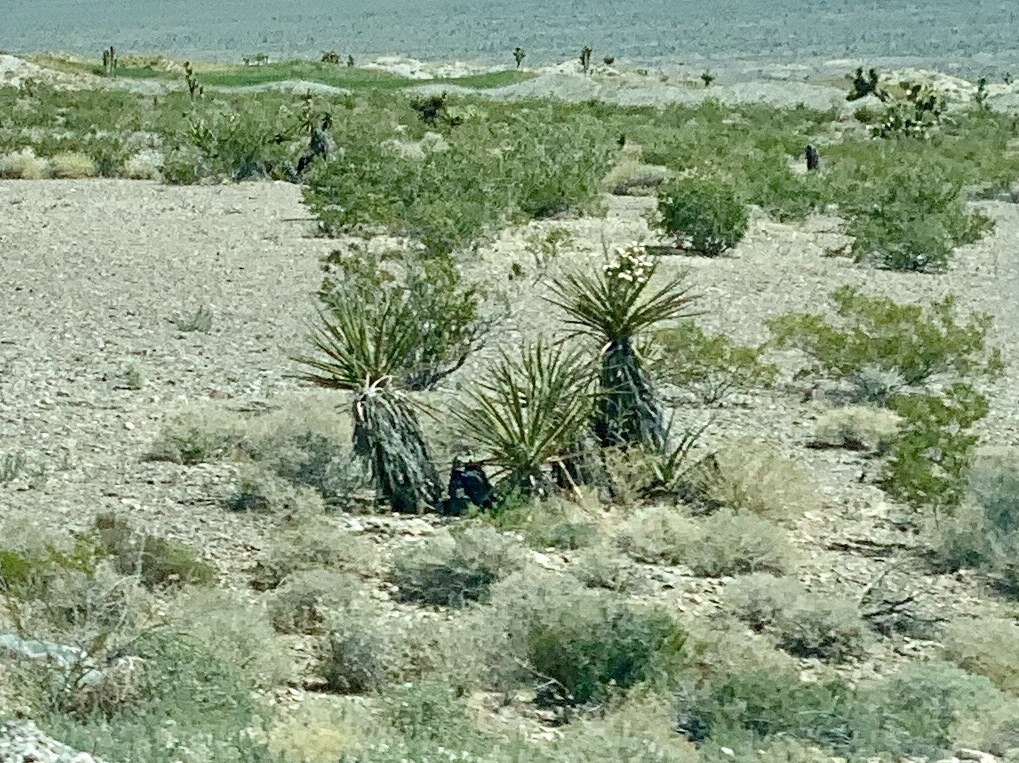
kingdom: Plantae
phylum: Tracheophyta
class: Liliopsida
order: Asparagales
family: Asparagaceae
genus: Yucca
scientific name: Yucca schidigera
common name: Mojave yucca
